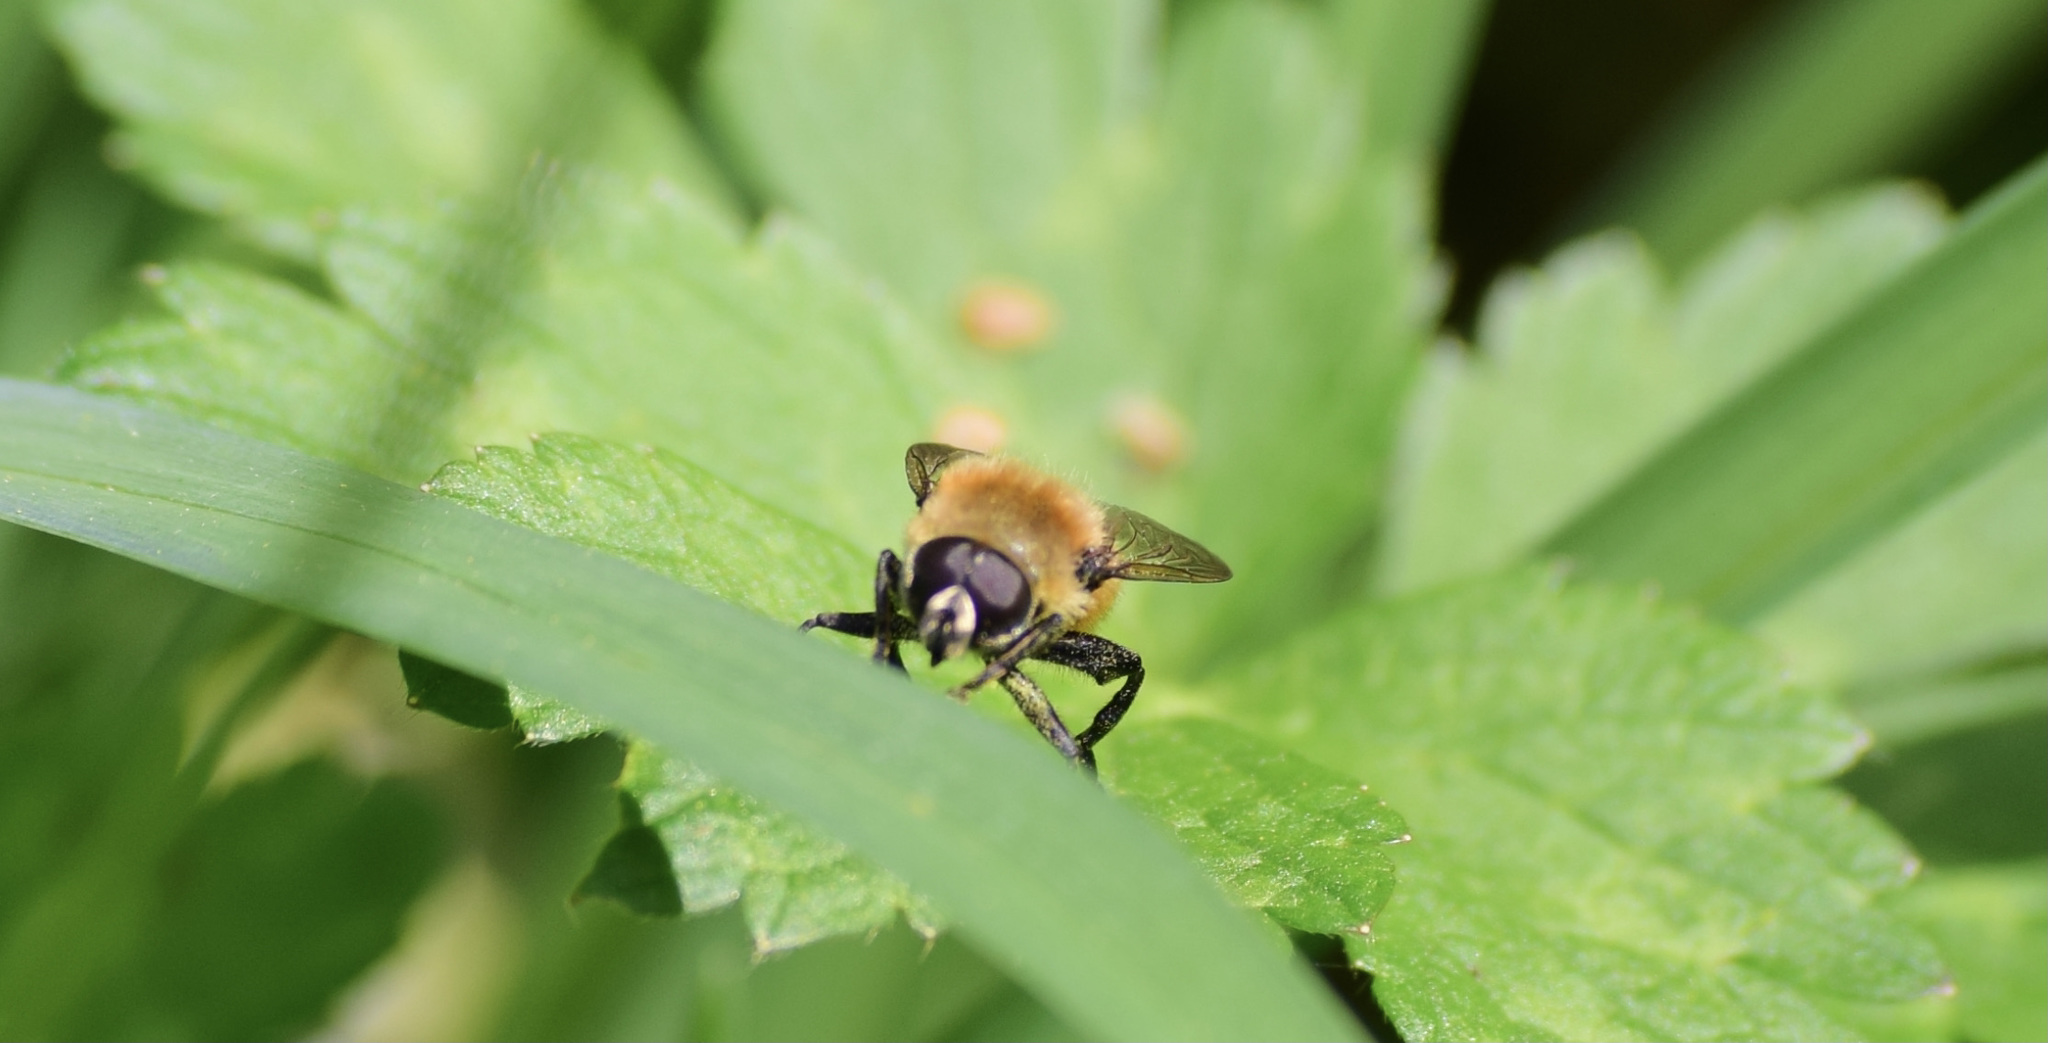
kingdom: Animalia
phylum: Arthropoda
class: Insecta
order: Diptera
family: Syrphidae
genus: Merodon
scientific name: Merodon equestris
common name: Greater bulb-fly
